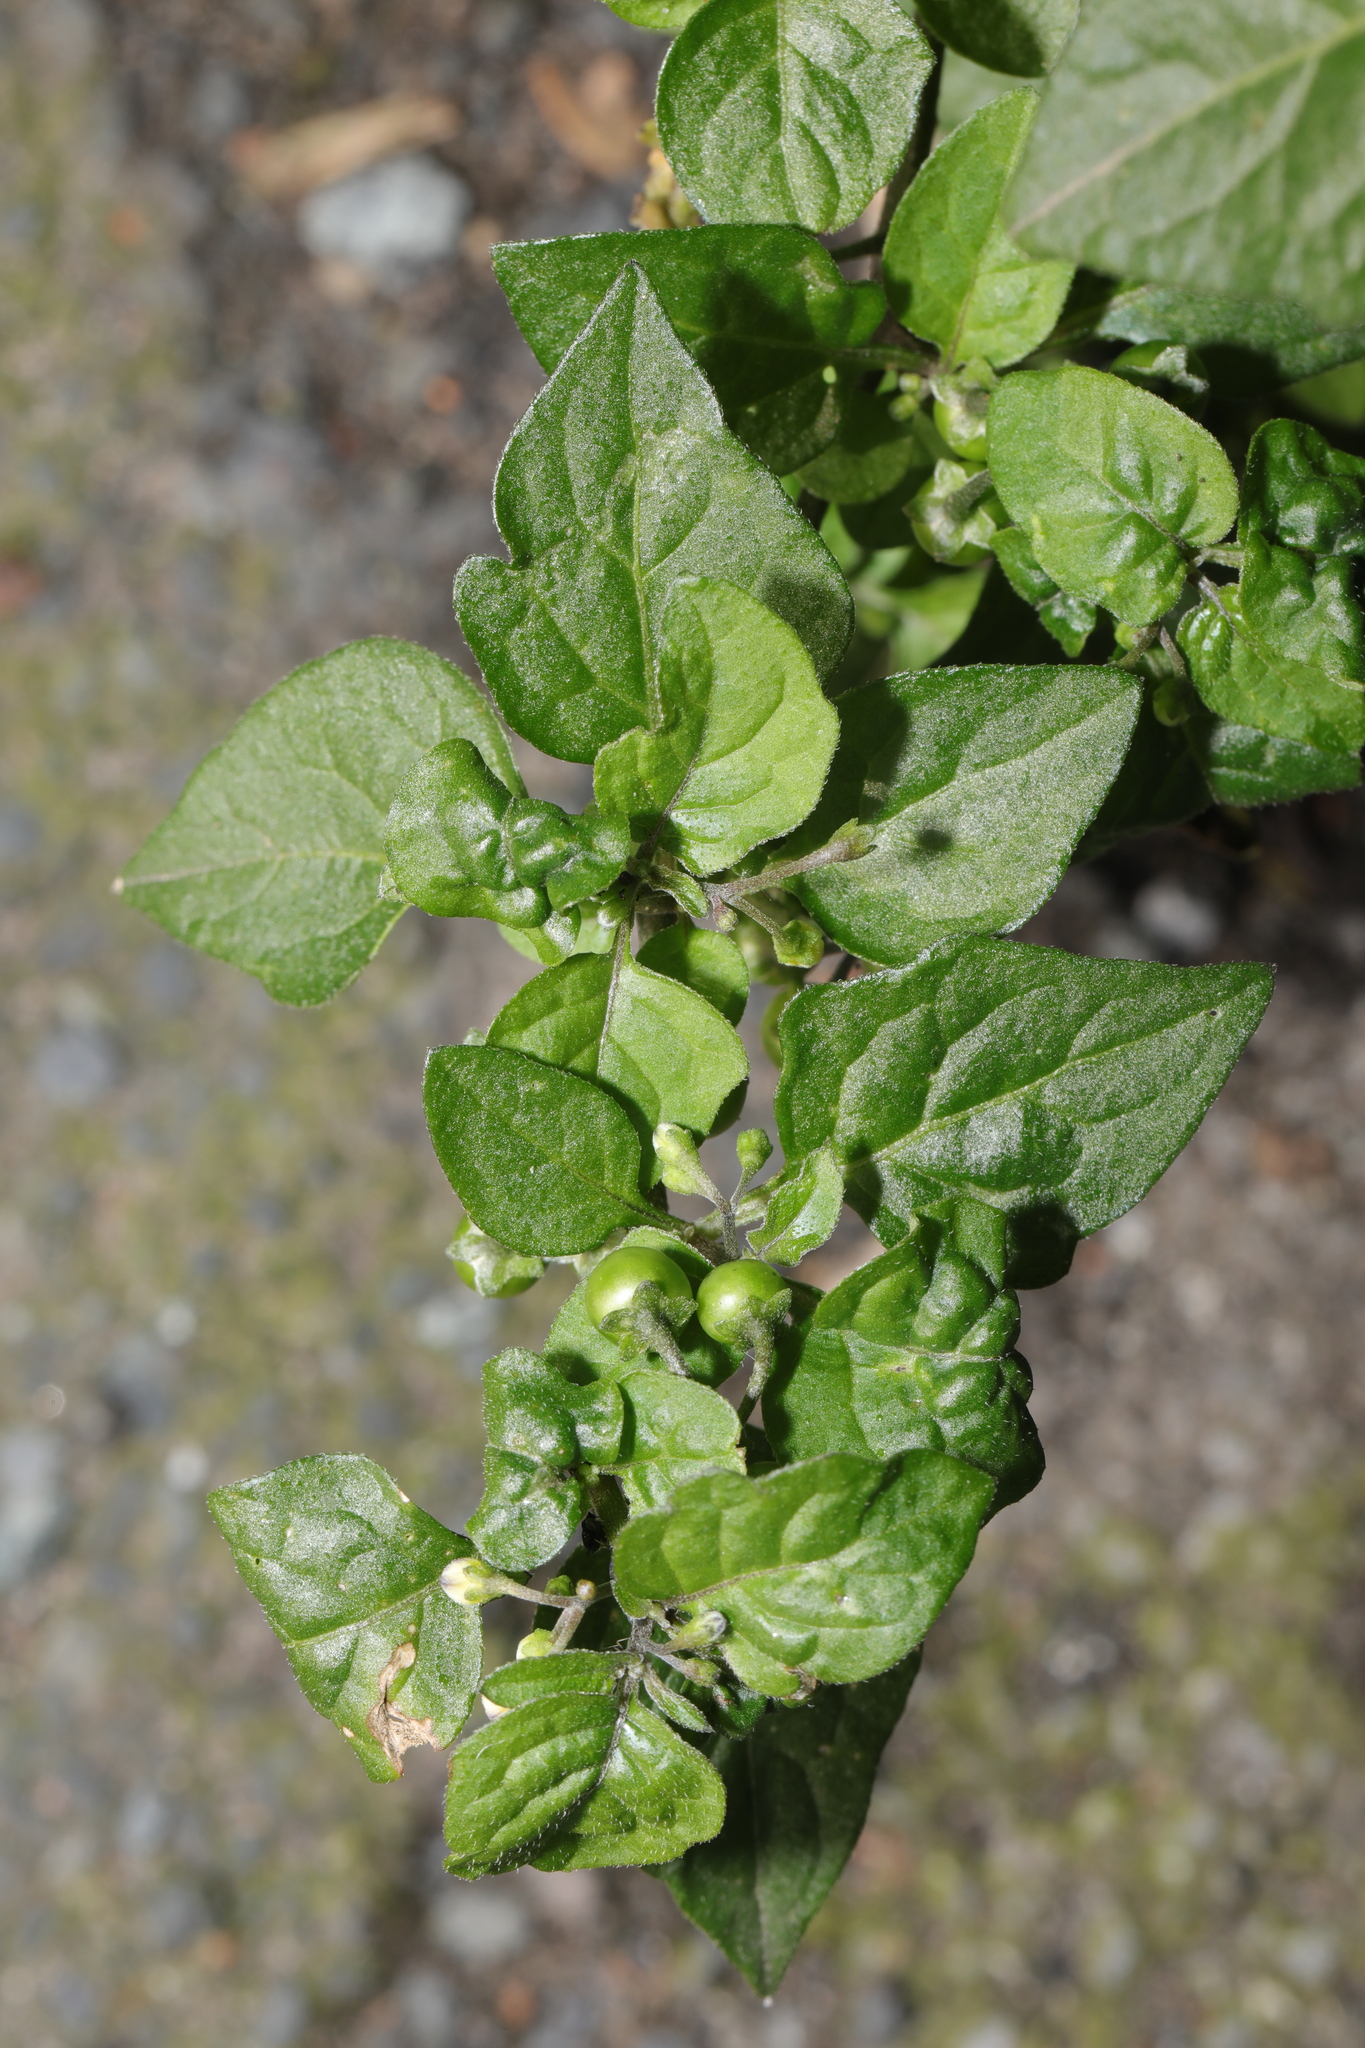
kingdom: Plantae
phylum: Tracheophyta
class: Magnoliopsida
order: Solanales
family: Solanaceae
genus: Solanum
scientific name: Solanum nigrum
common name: Black nightshade
